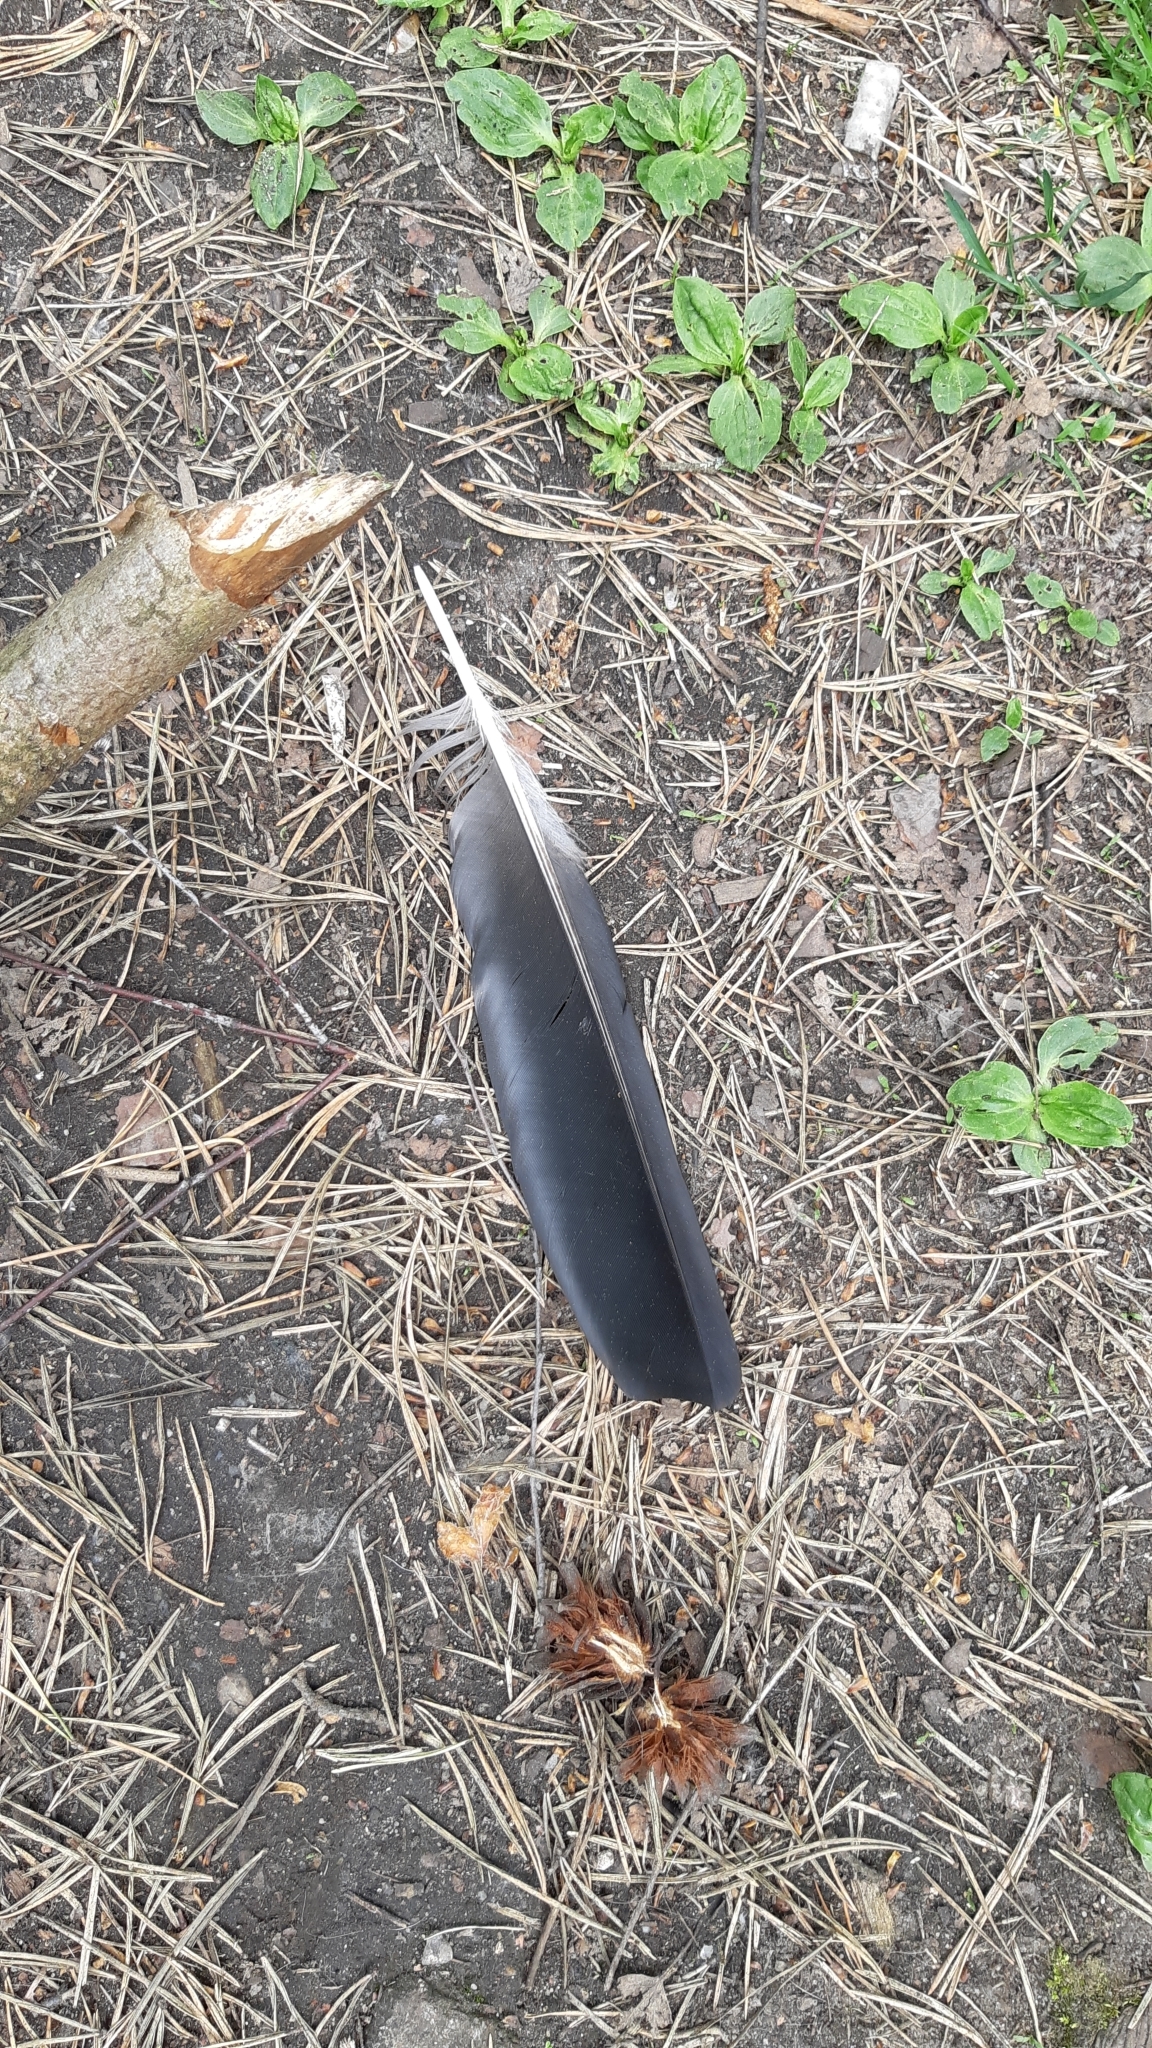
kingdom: Animalia
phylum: Chordata
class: Aves
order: Passeriformes
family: Corvidae
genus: Corvus
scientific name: Corvus cornix
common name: Hooded crow
